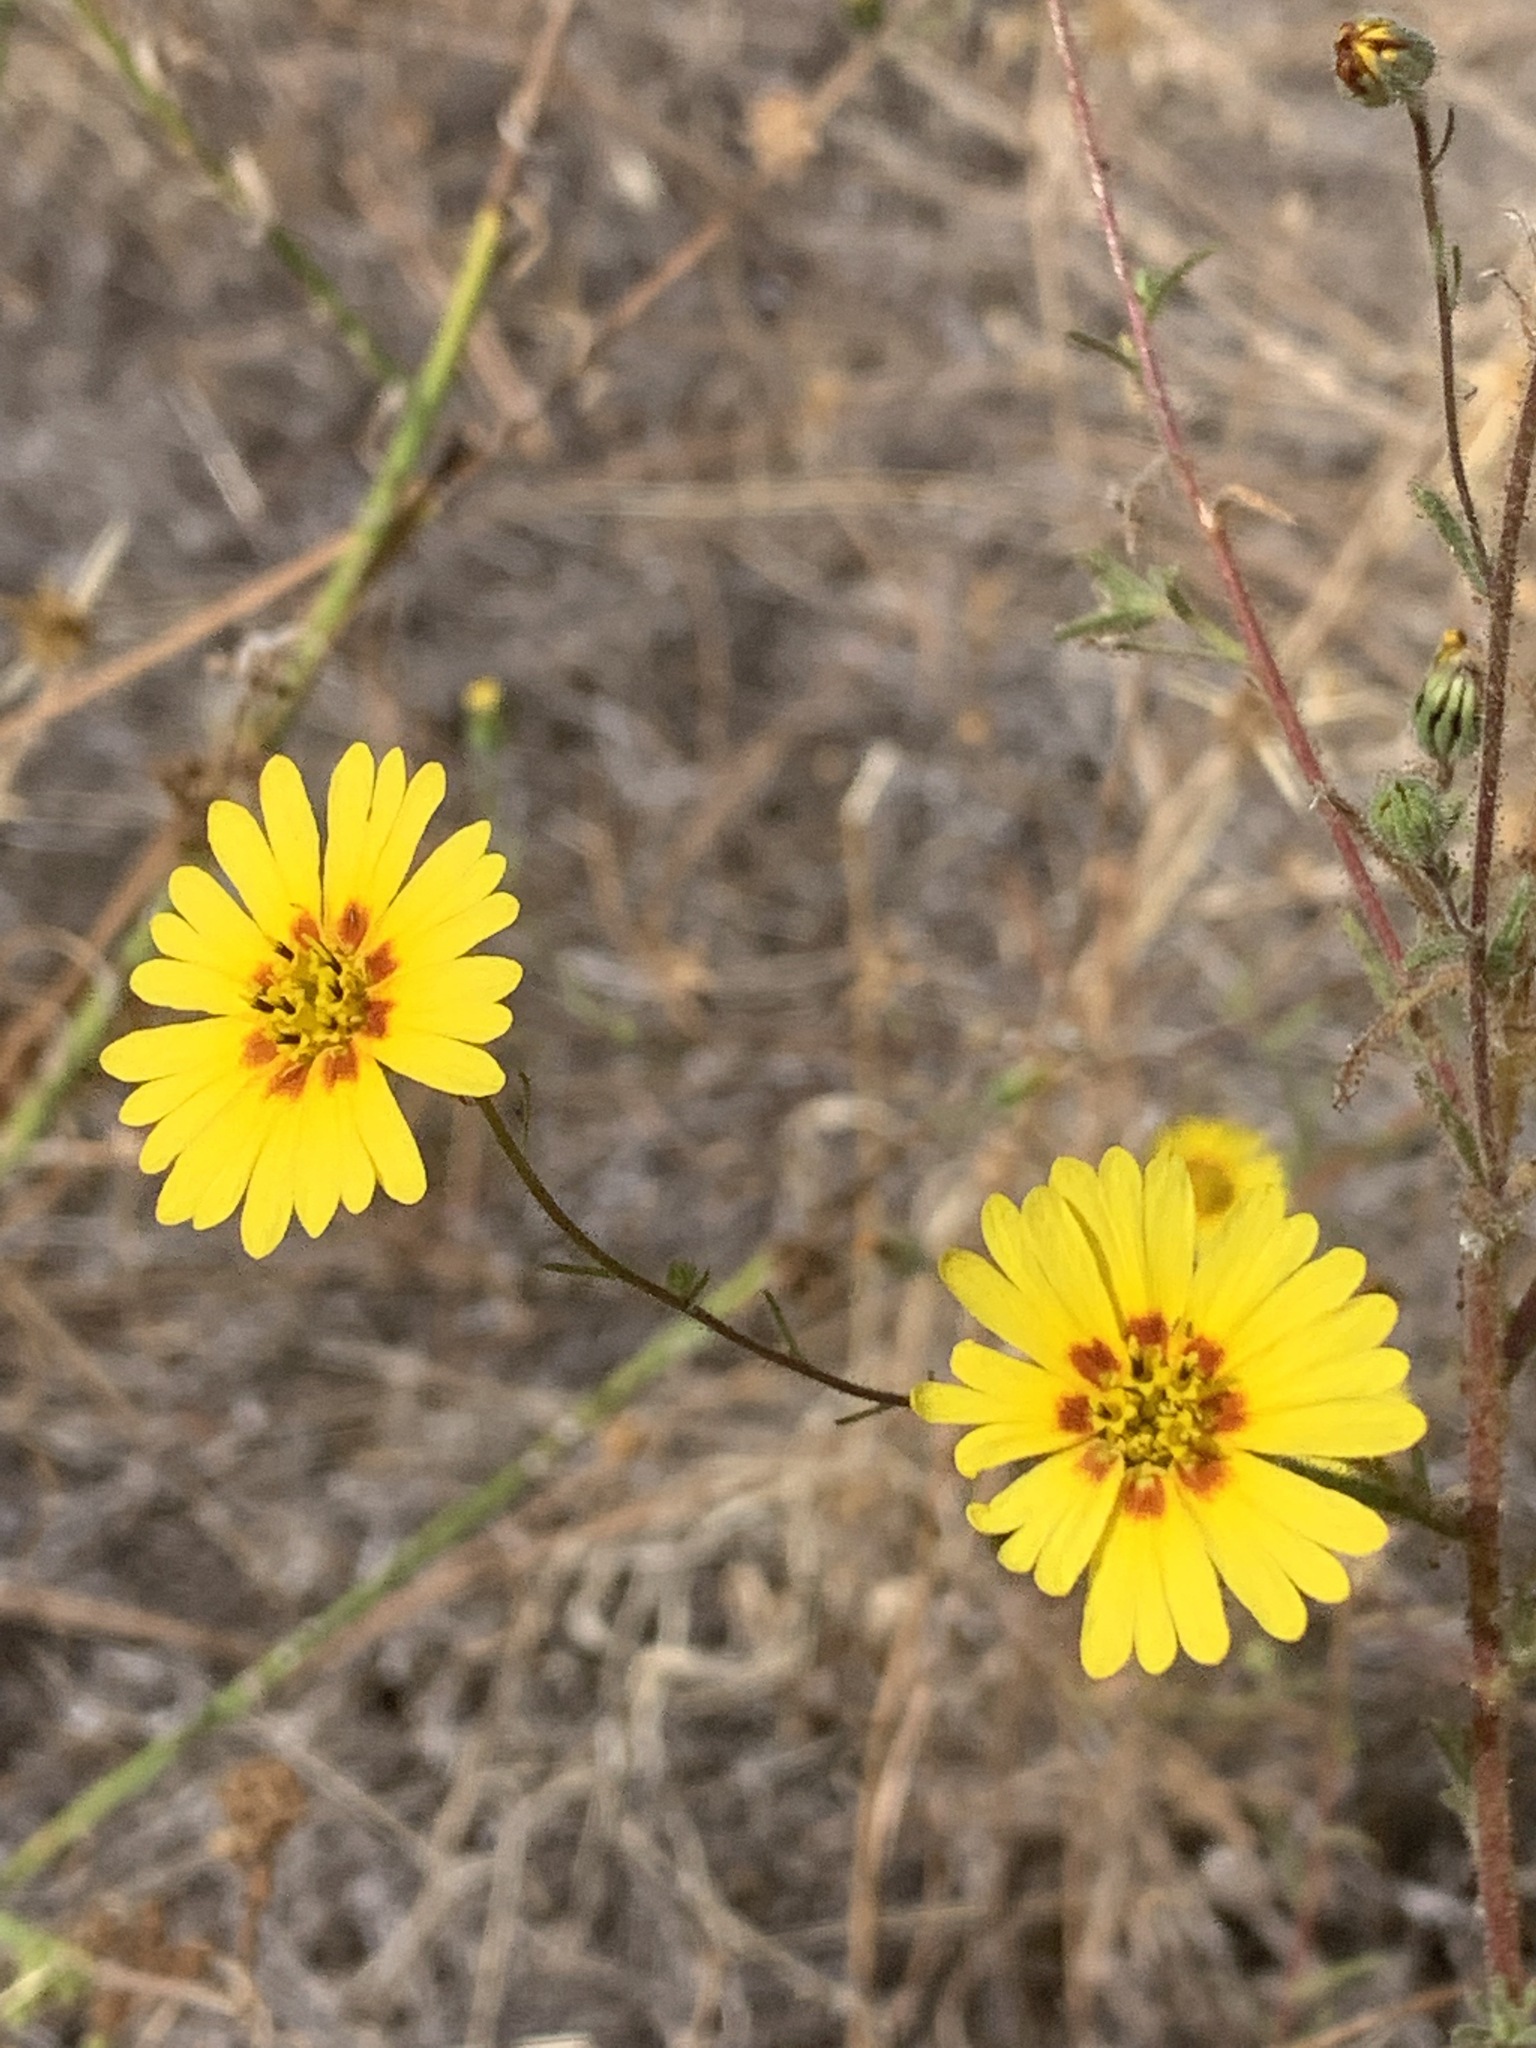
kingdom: Plantae
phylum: Tracheophyta
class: Magnoliopsida
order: Asterales
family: Asteraceae
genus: Madia
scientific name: Madia elegans
